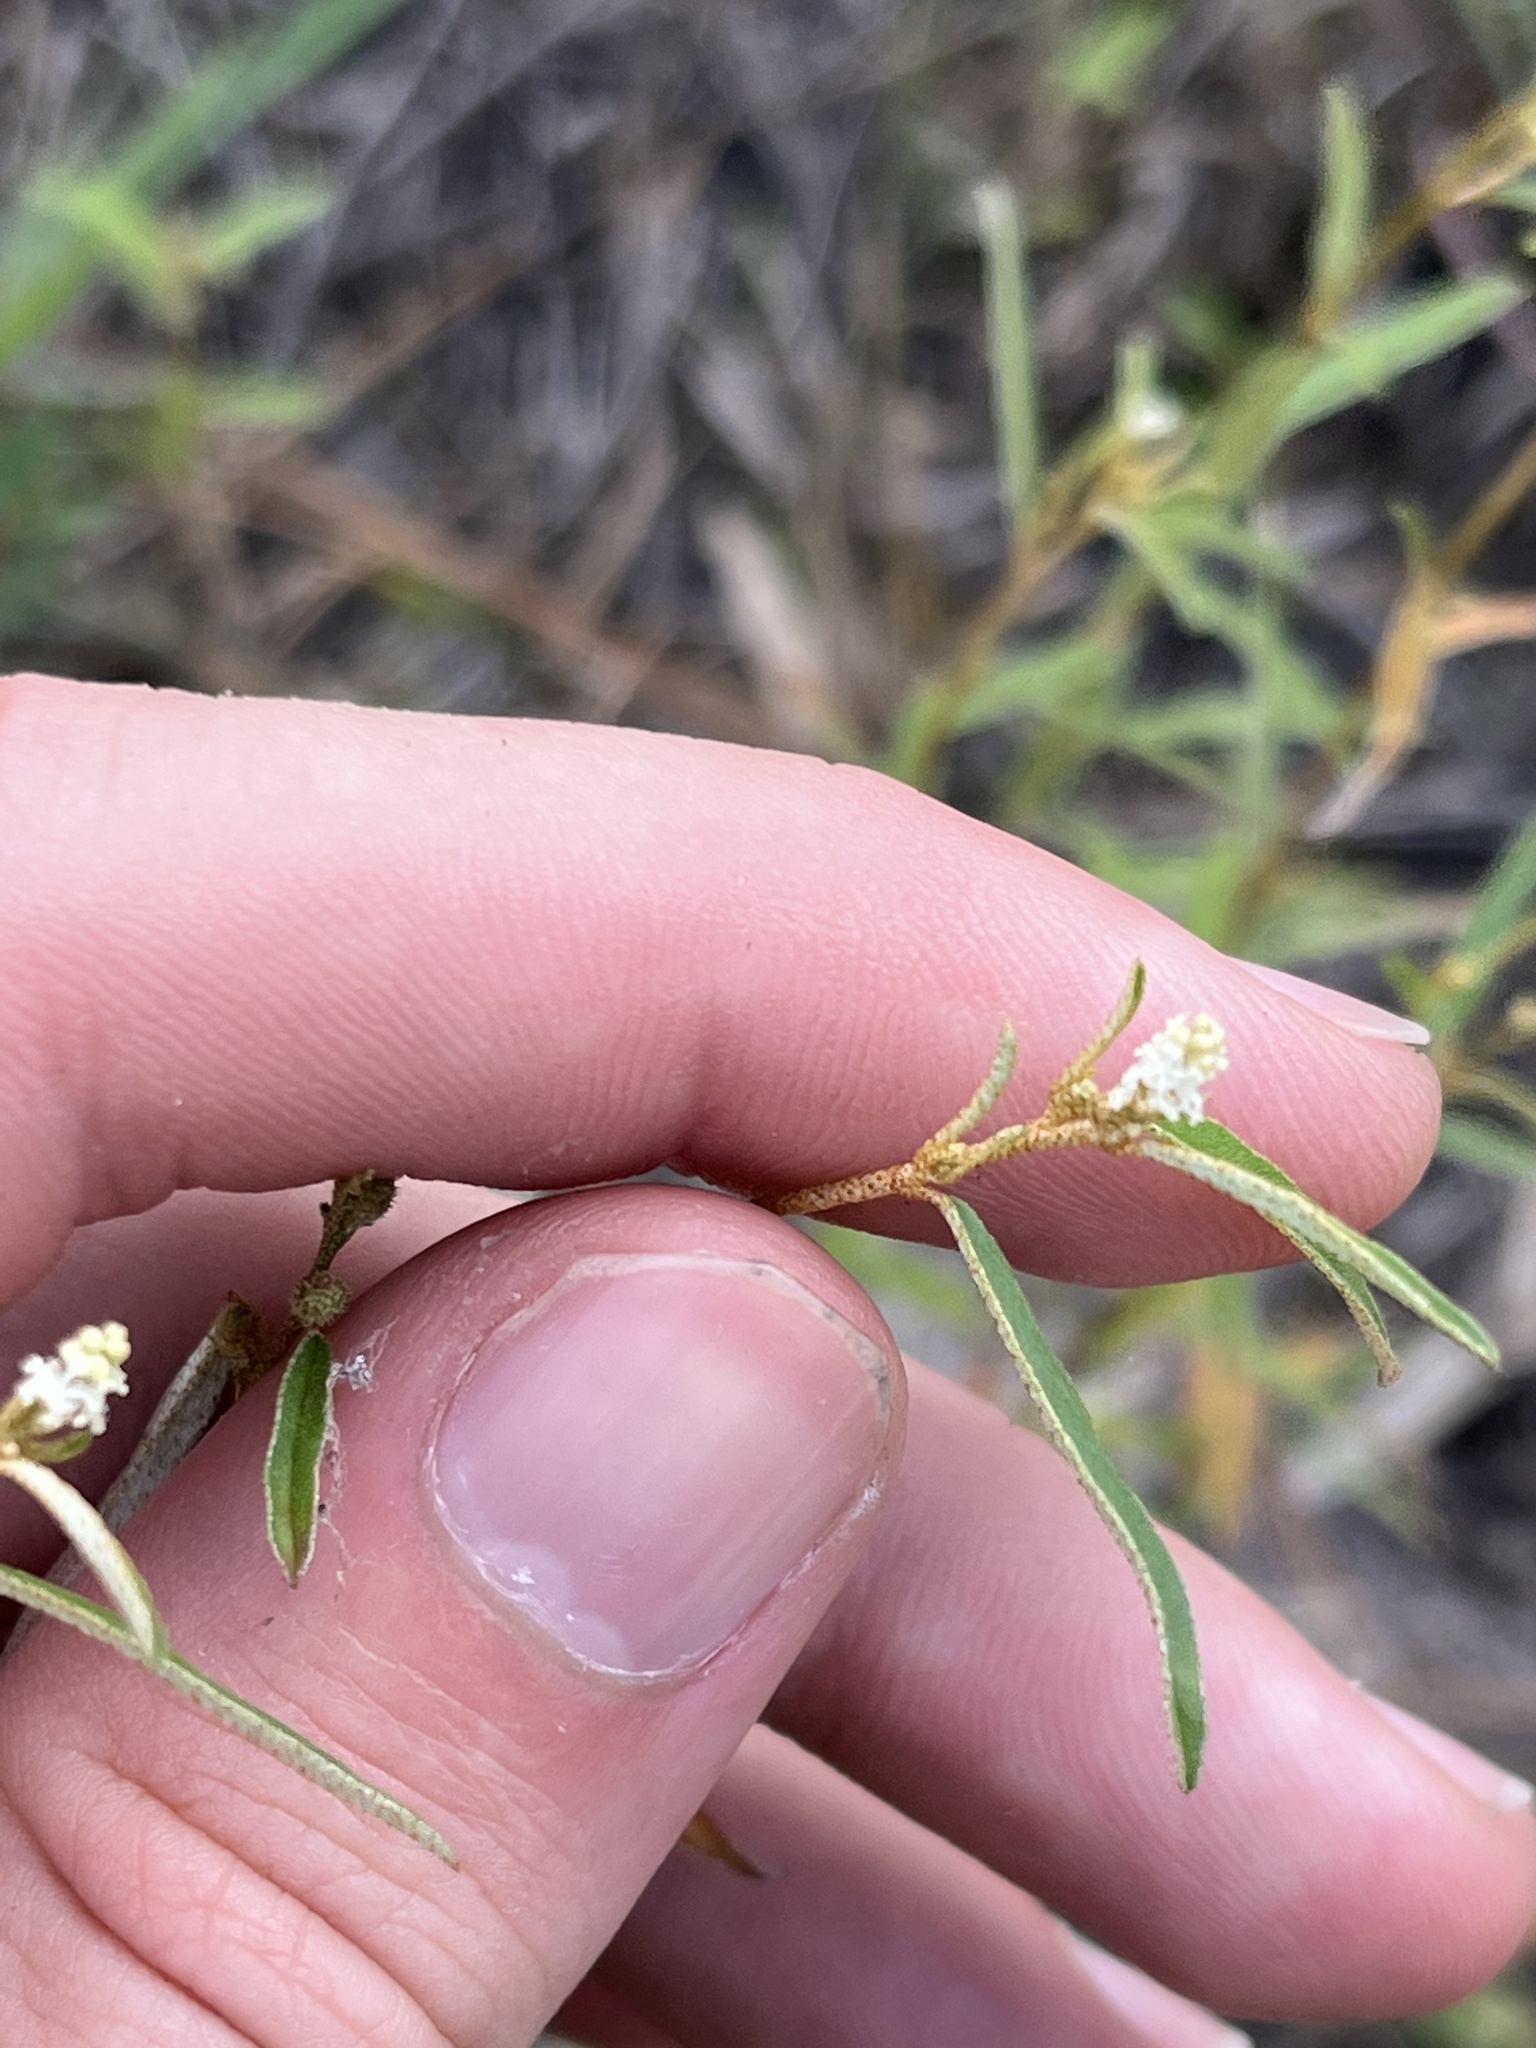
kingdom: Plantae
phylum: Tracheophyta
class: Magnoliopsida
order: Malpighiales
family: Euphorbiaceae
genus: Croton
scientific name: Croton michauxii
